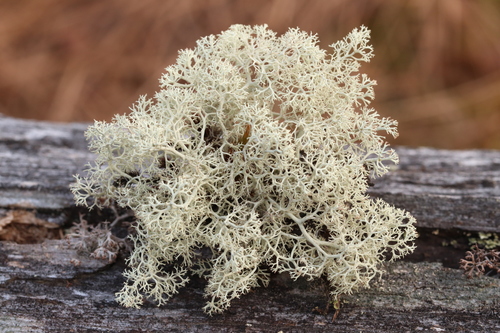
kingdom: Fungi
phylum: Ascomycota
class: Lecanoromycetes
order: Lecanorales
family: Cladoniaceae
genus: Cladonia
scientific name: Cladonia stellaris
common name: Star-tipped reindeer lichen
